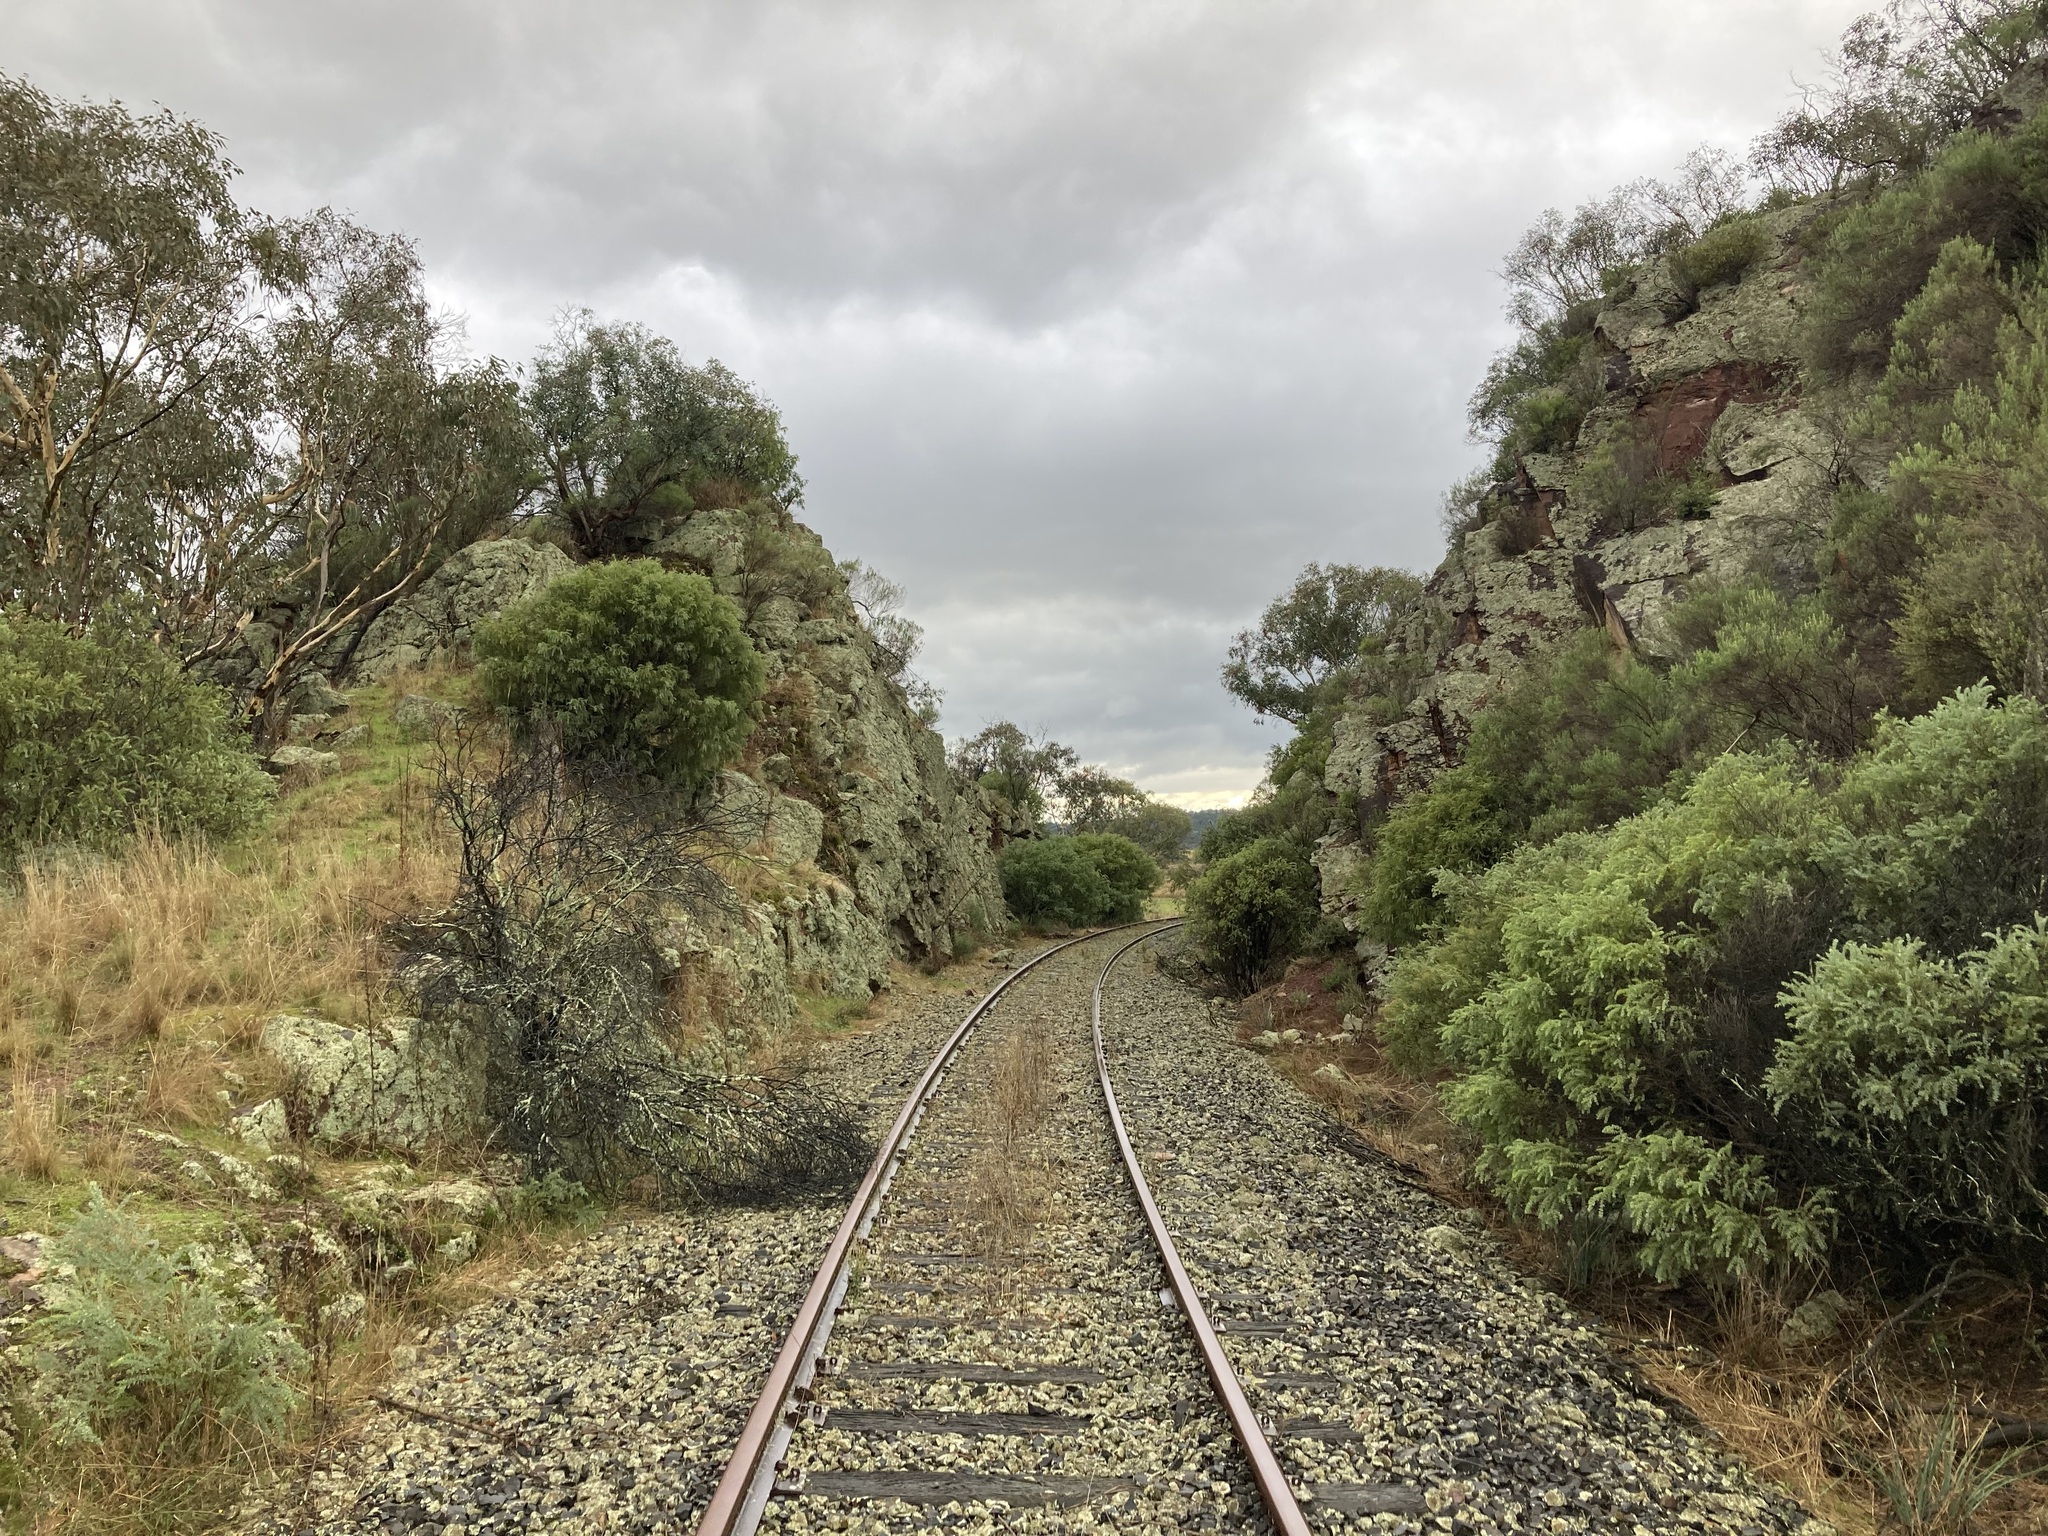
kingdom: Plantae
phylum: Tracheophyta
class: Magnoliopsida
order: Fabales
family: Fabaceae
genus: Acacia
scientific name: Acacia vestita
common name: Hairy wattle
